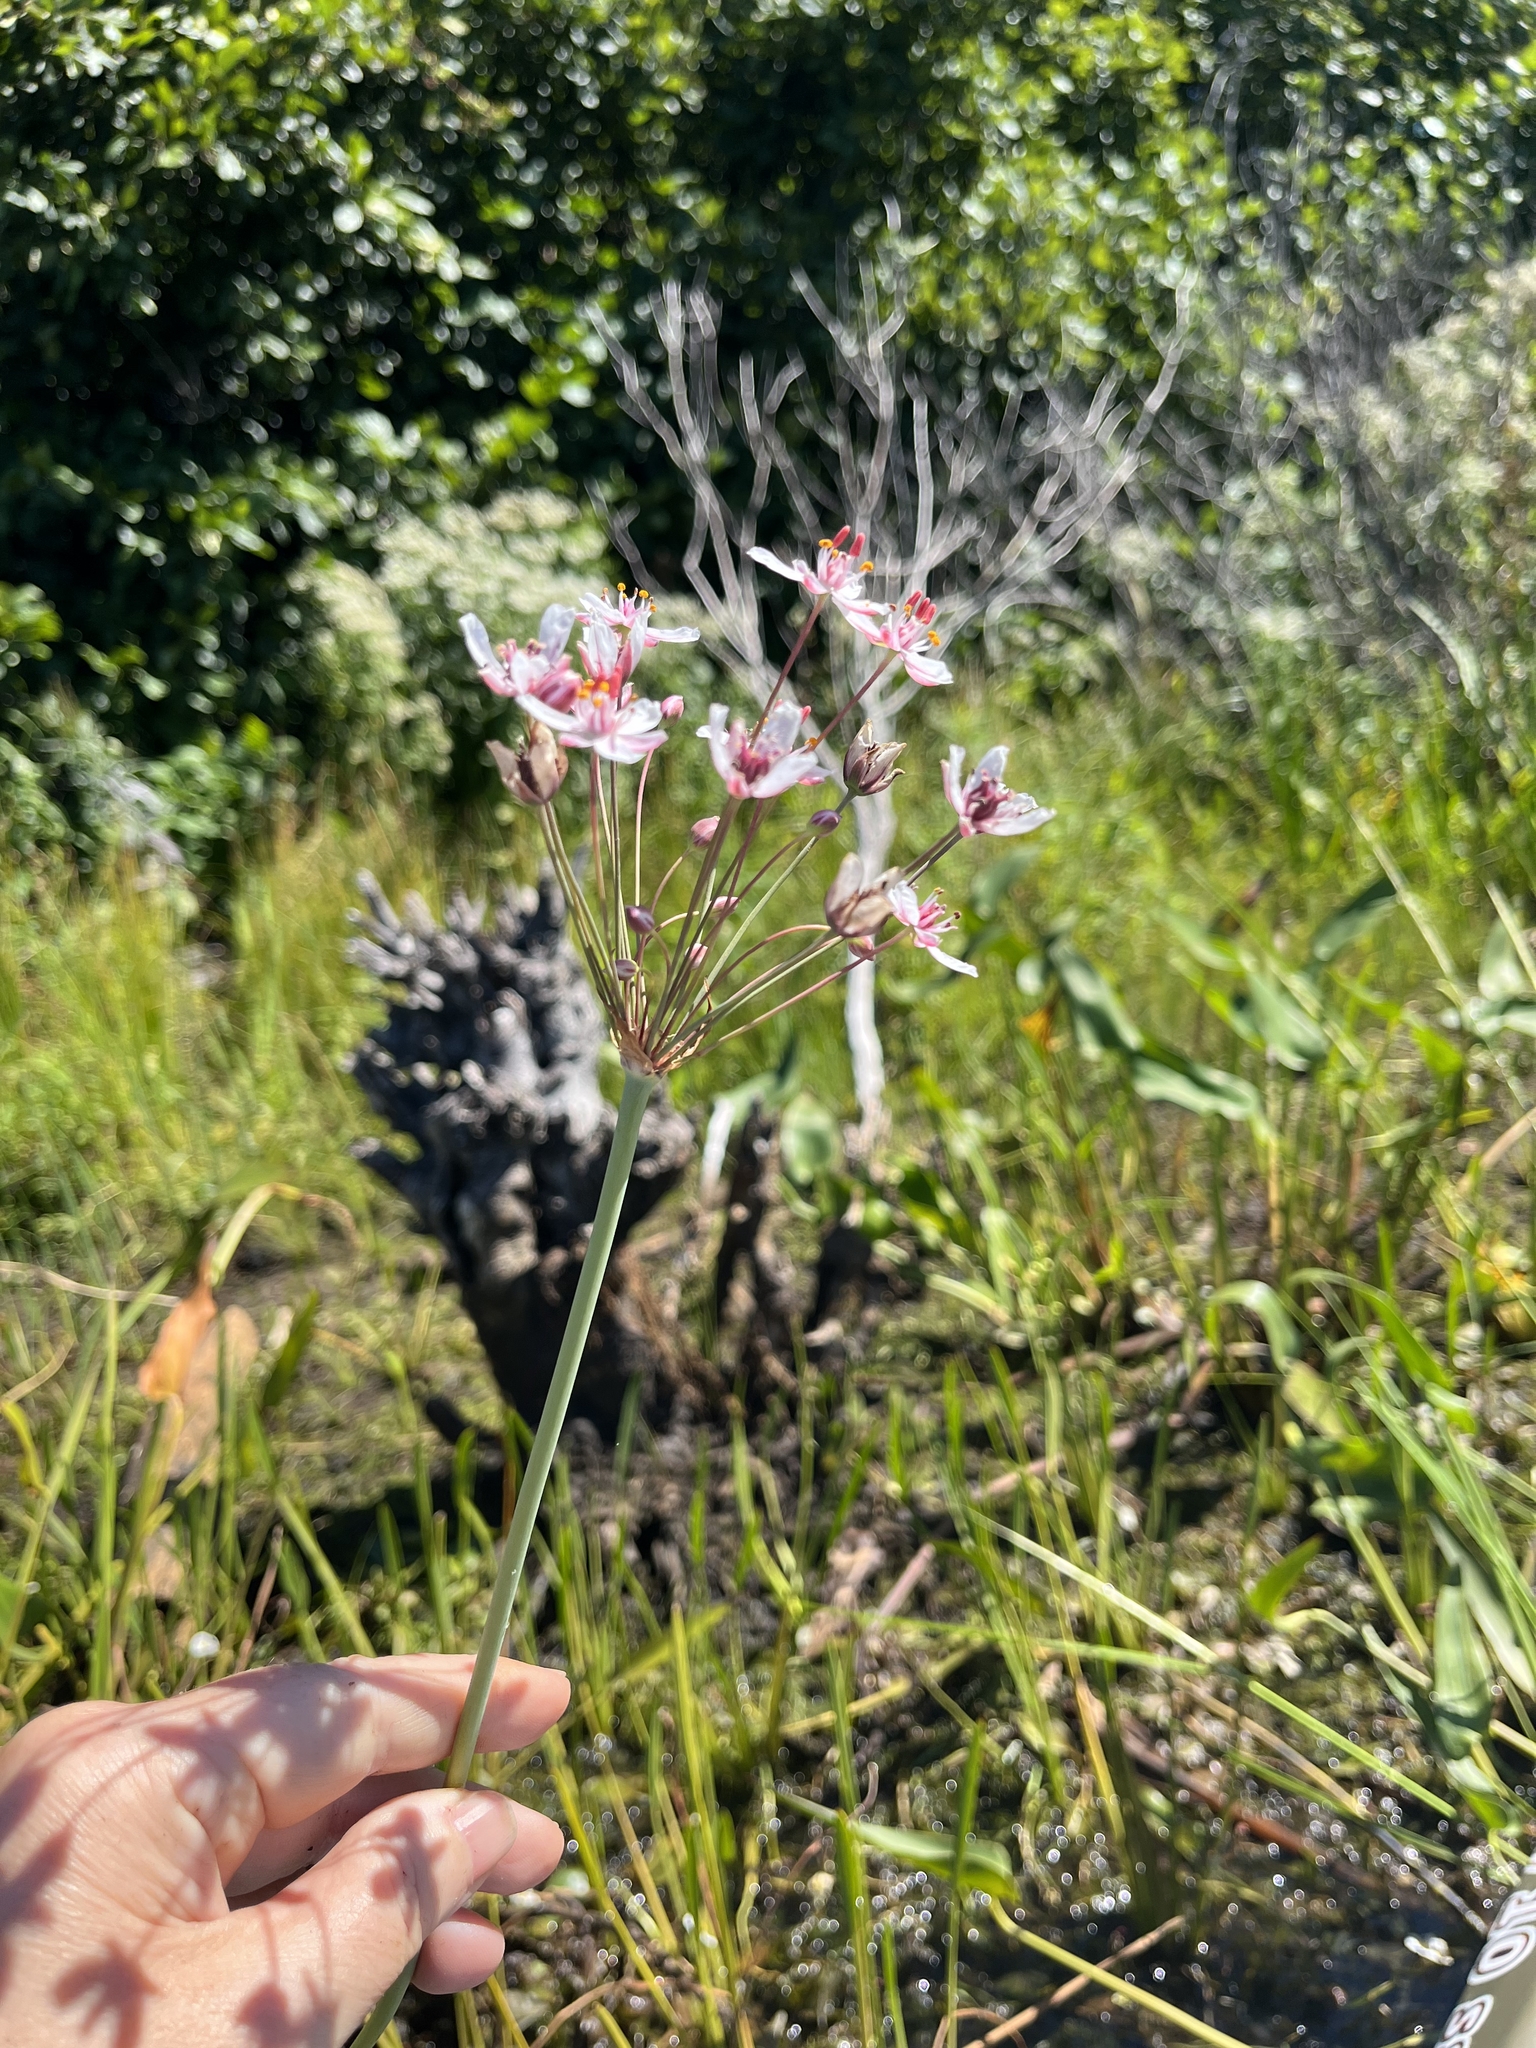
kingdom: Plantae
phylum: Tracheophyta
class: Liliopsida
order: Alismatales
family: Butomaceae
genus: Butomus
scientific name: Butomus umbellatus
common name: Flowering-rush
